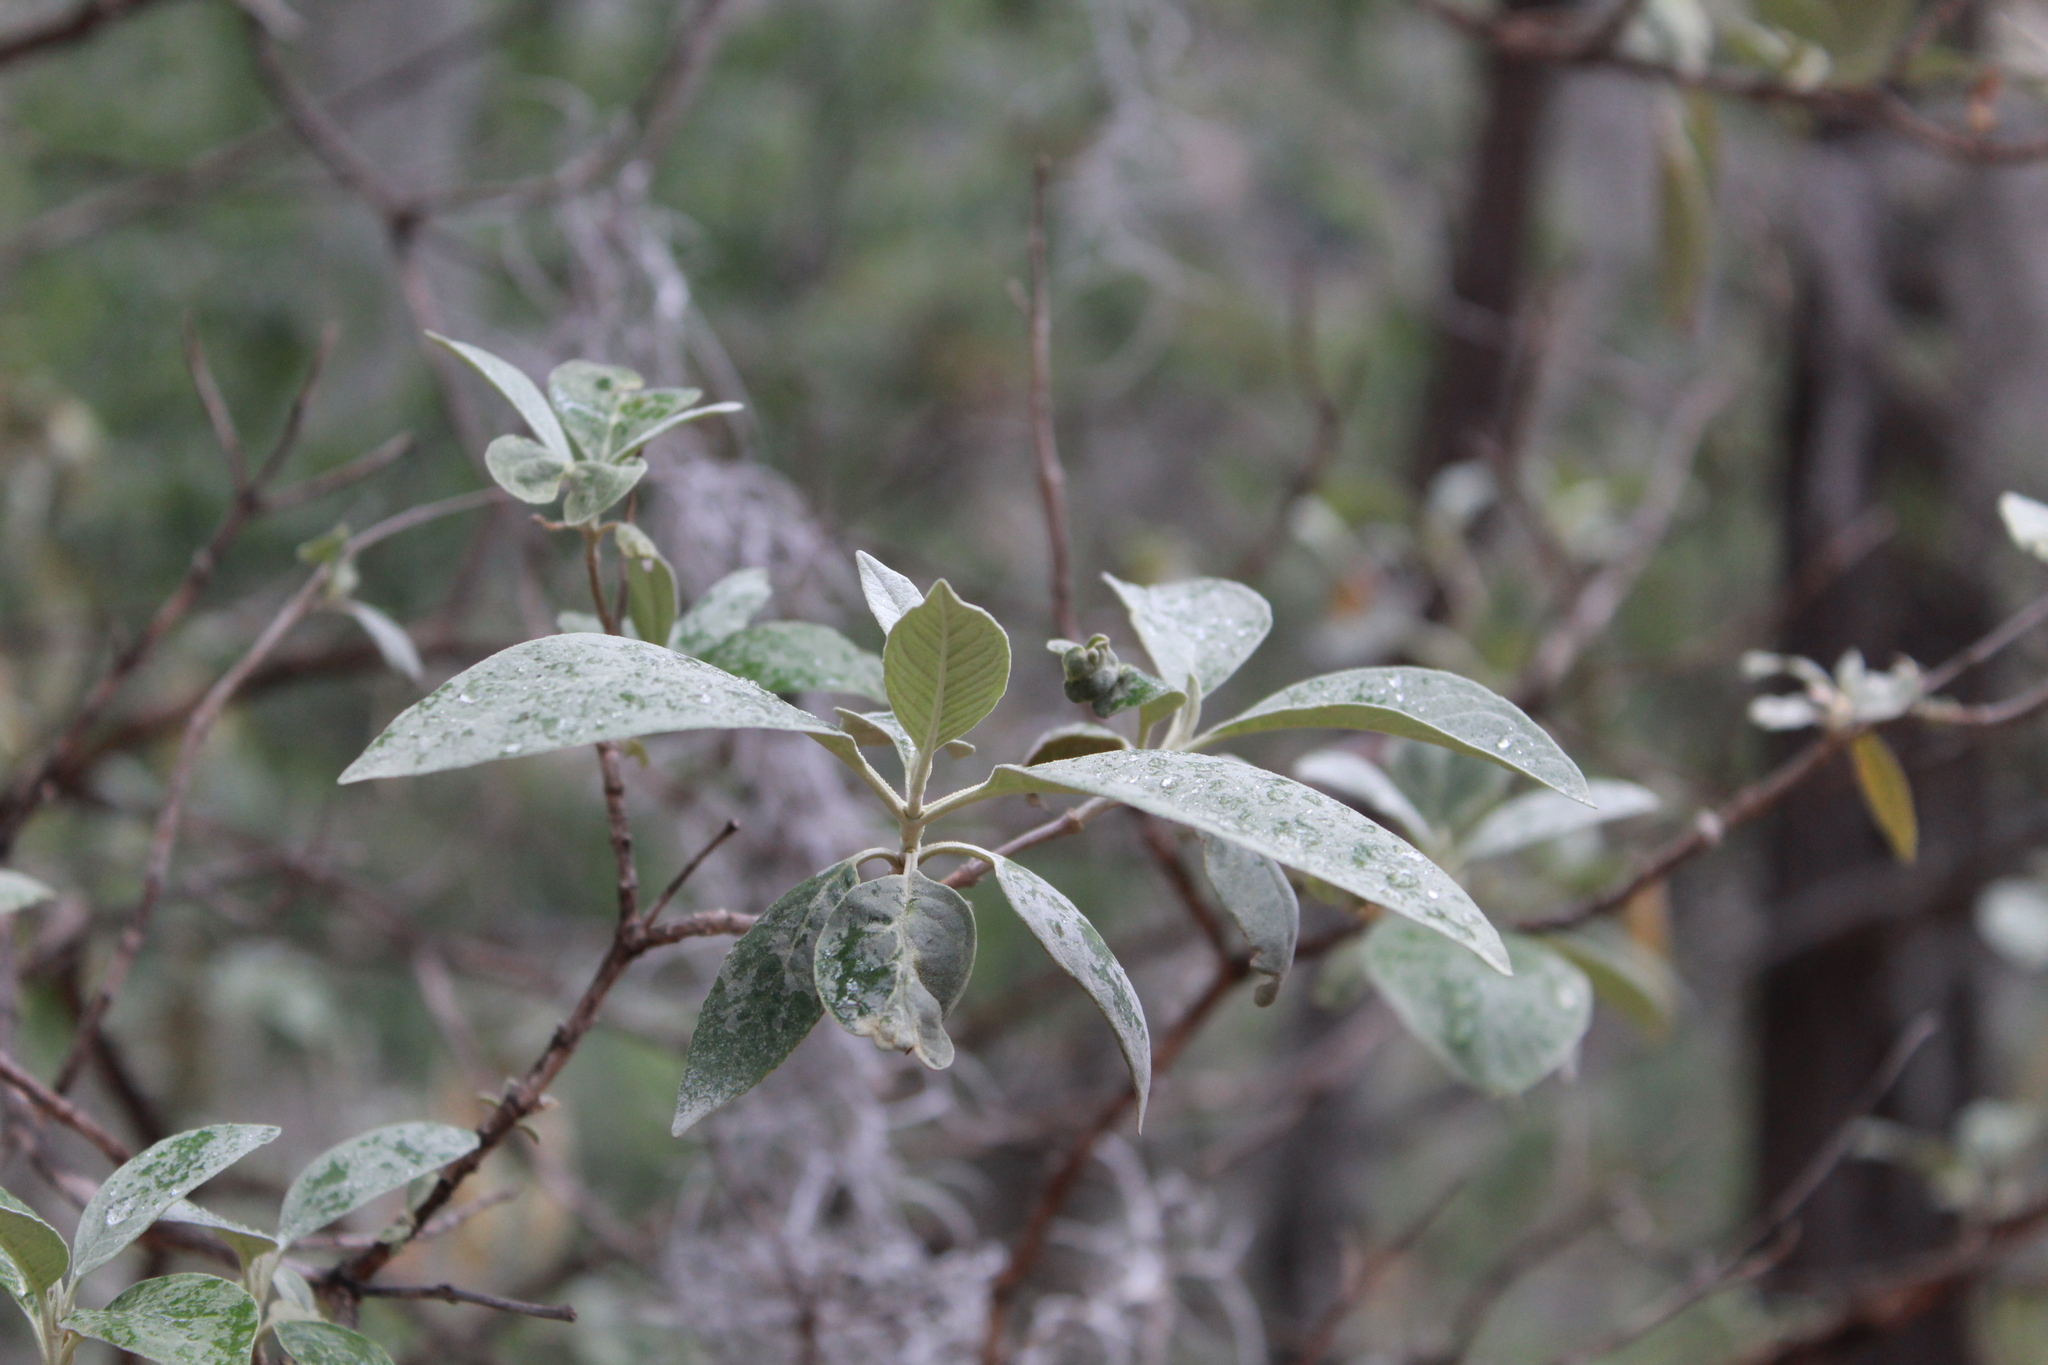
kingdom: Plantae
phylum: Tracheophyta
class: Magnoliopsida
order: Lamiales
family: Scrophulariaceae
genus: Buddleja
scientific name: Buddleja cordata
